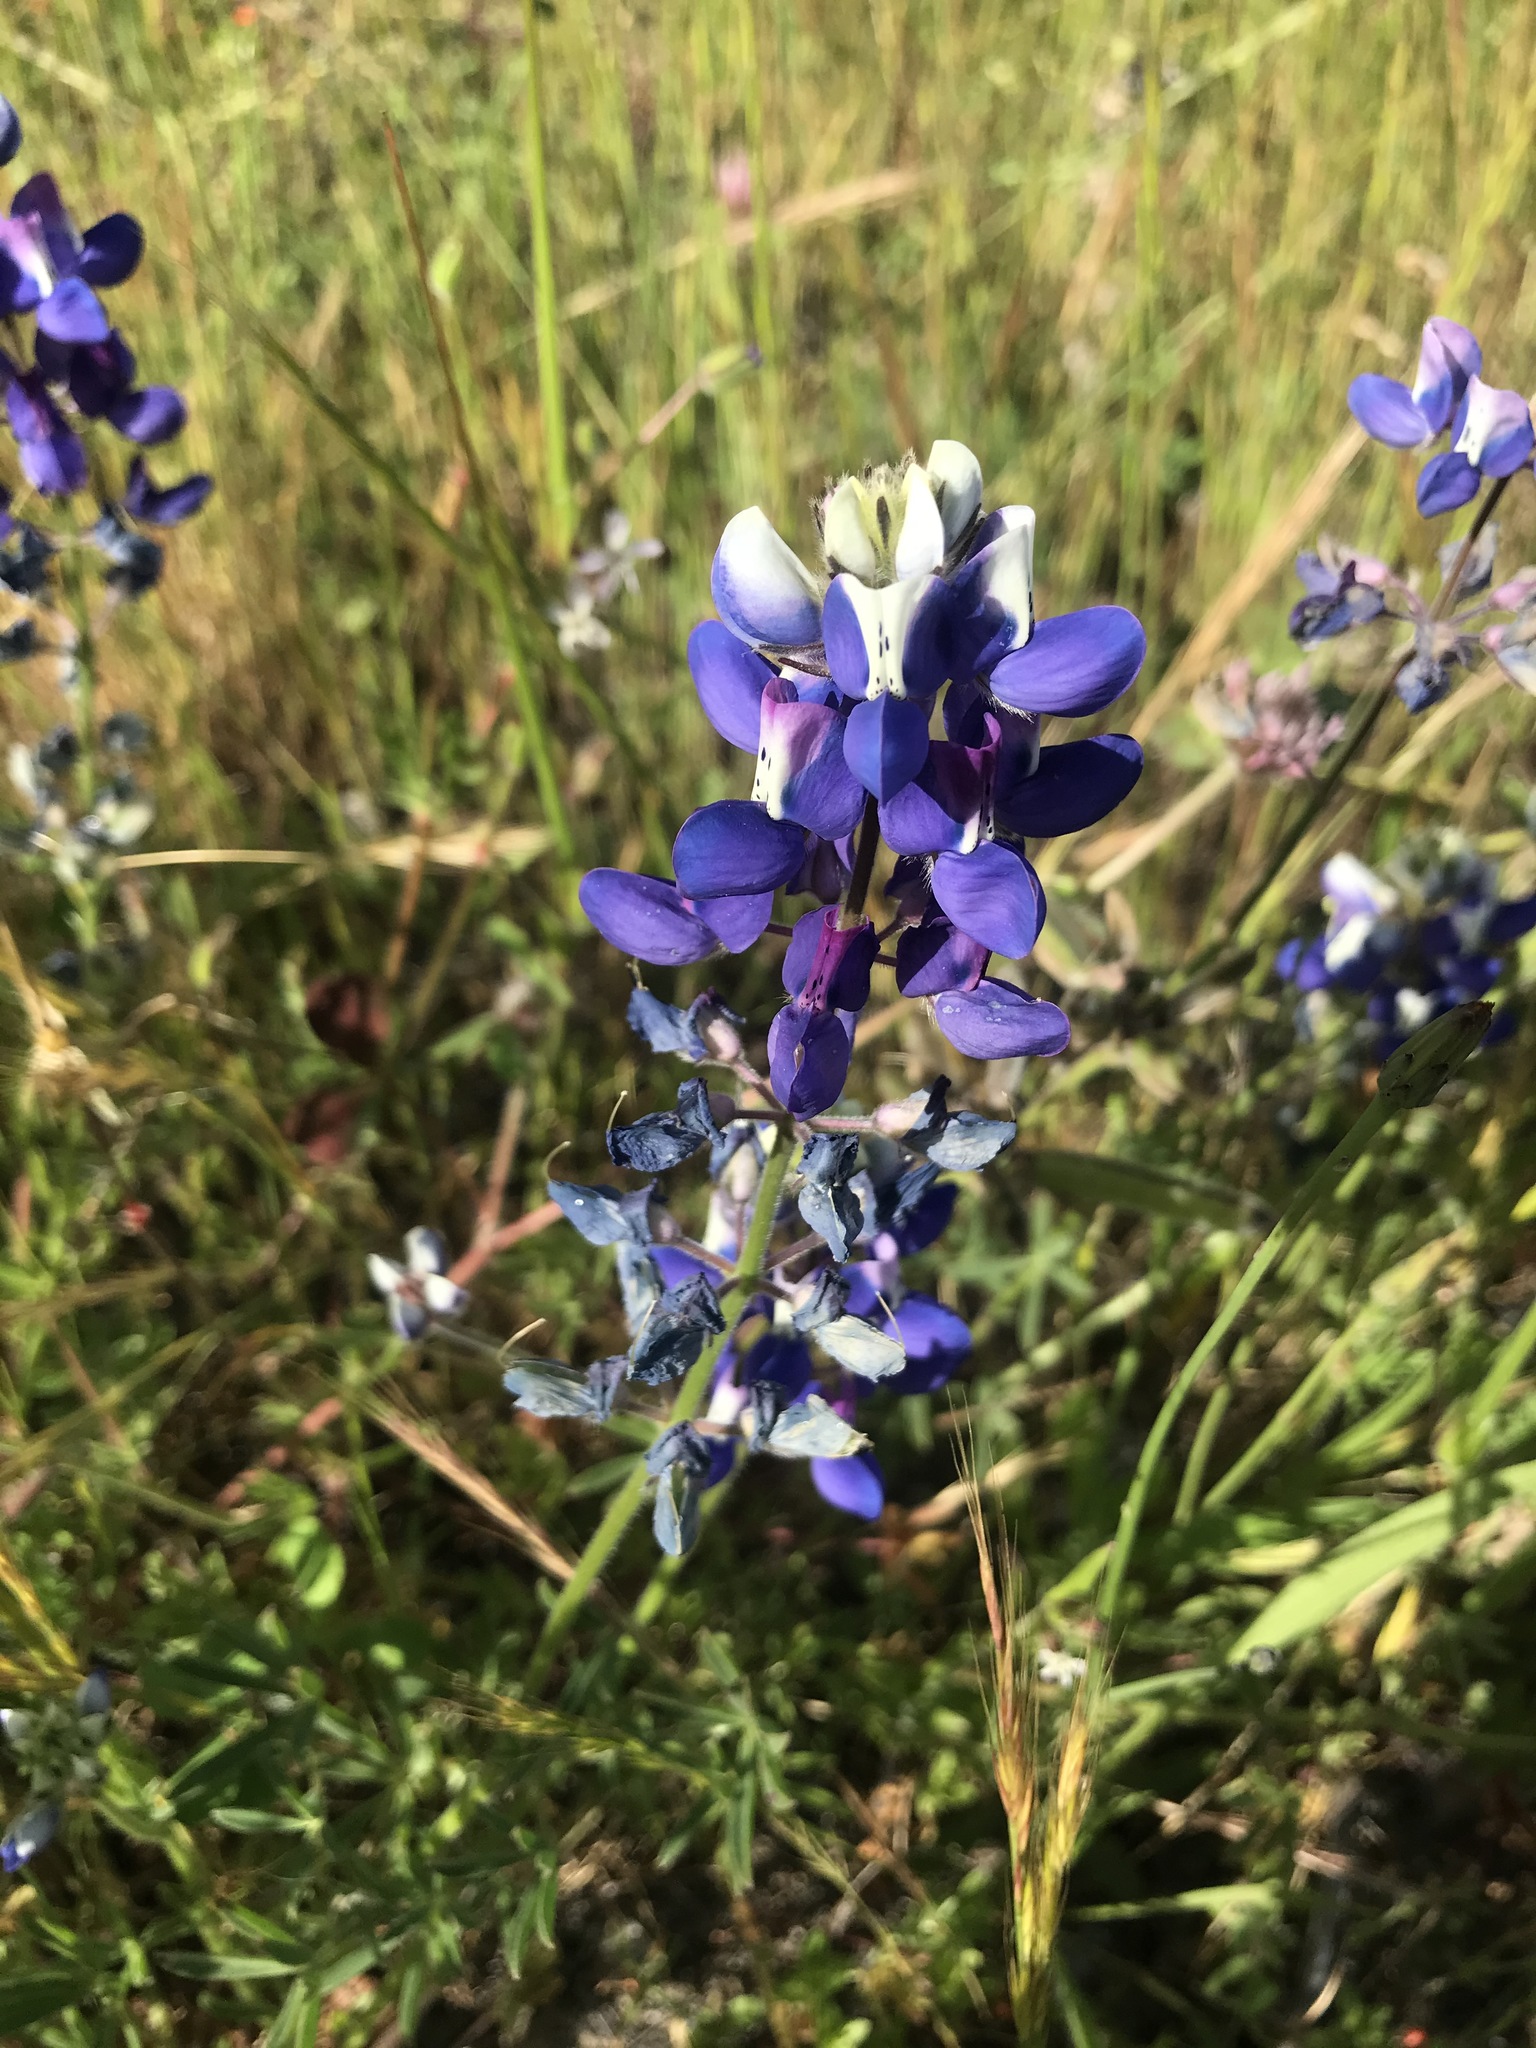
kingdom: Plantae
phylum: Tracheophyta
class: Magnoliopsida
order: Fabales
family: Fabaceae
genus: Lupinus
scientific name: Lupinus nanus
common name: Orean blue lupin
